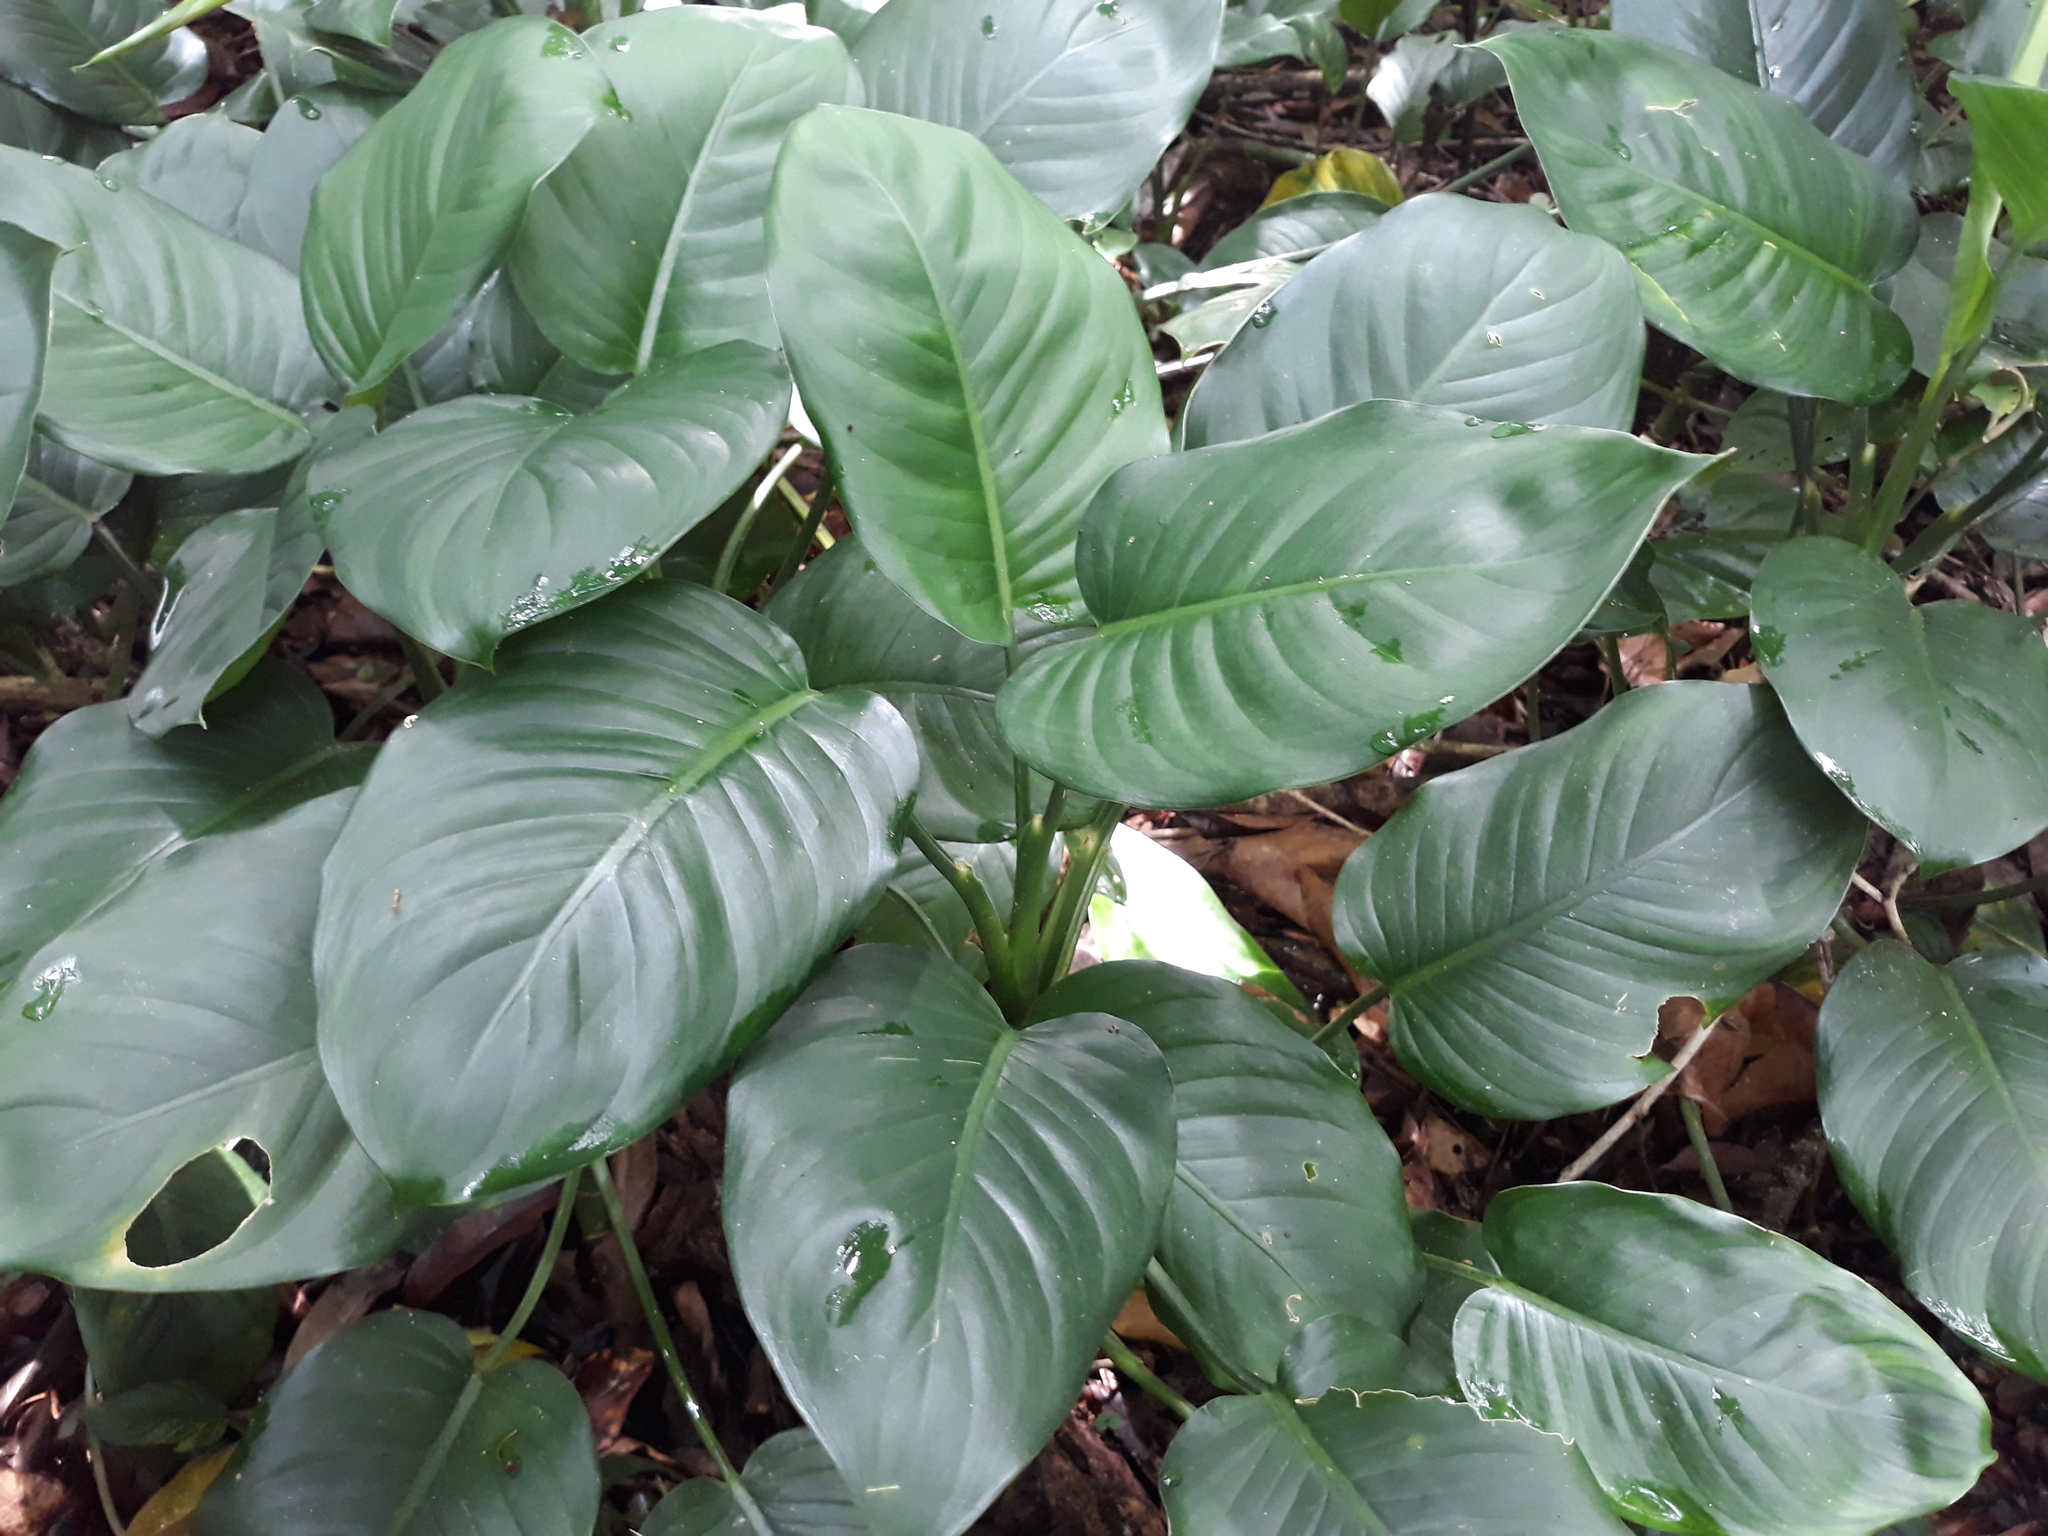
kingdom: Plantae
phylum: Tracheophyta
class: Liliopsida
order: Alismatales
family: Araceae
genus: Dieffenbachia
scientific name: Dieffenbachia wendlandii
